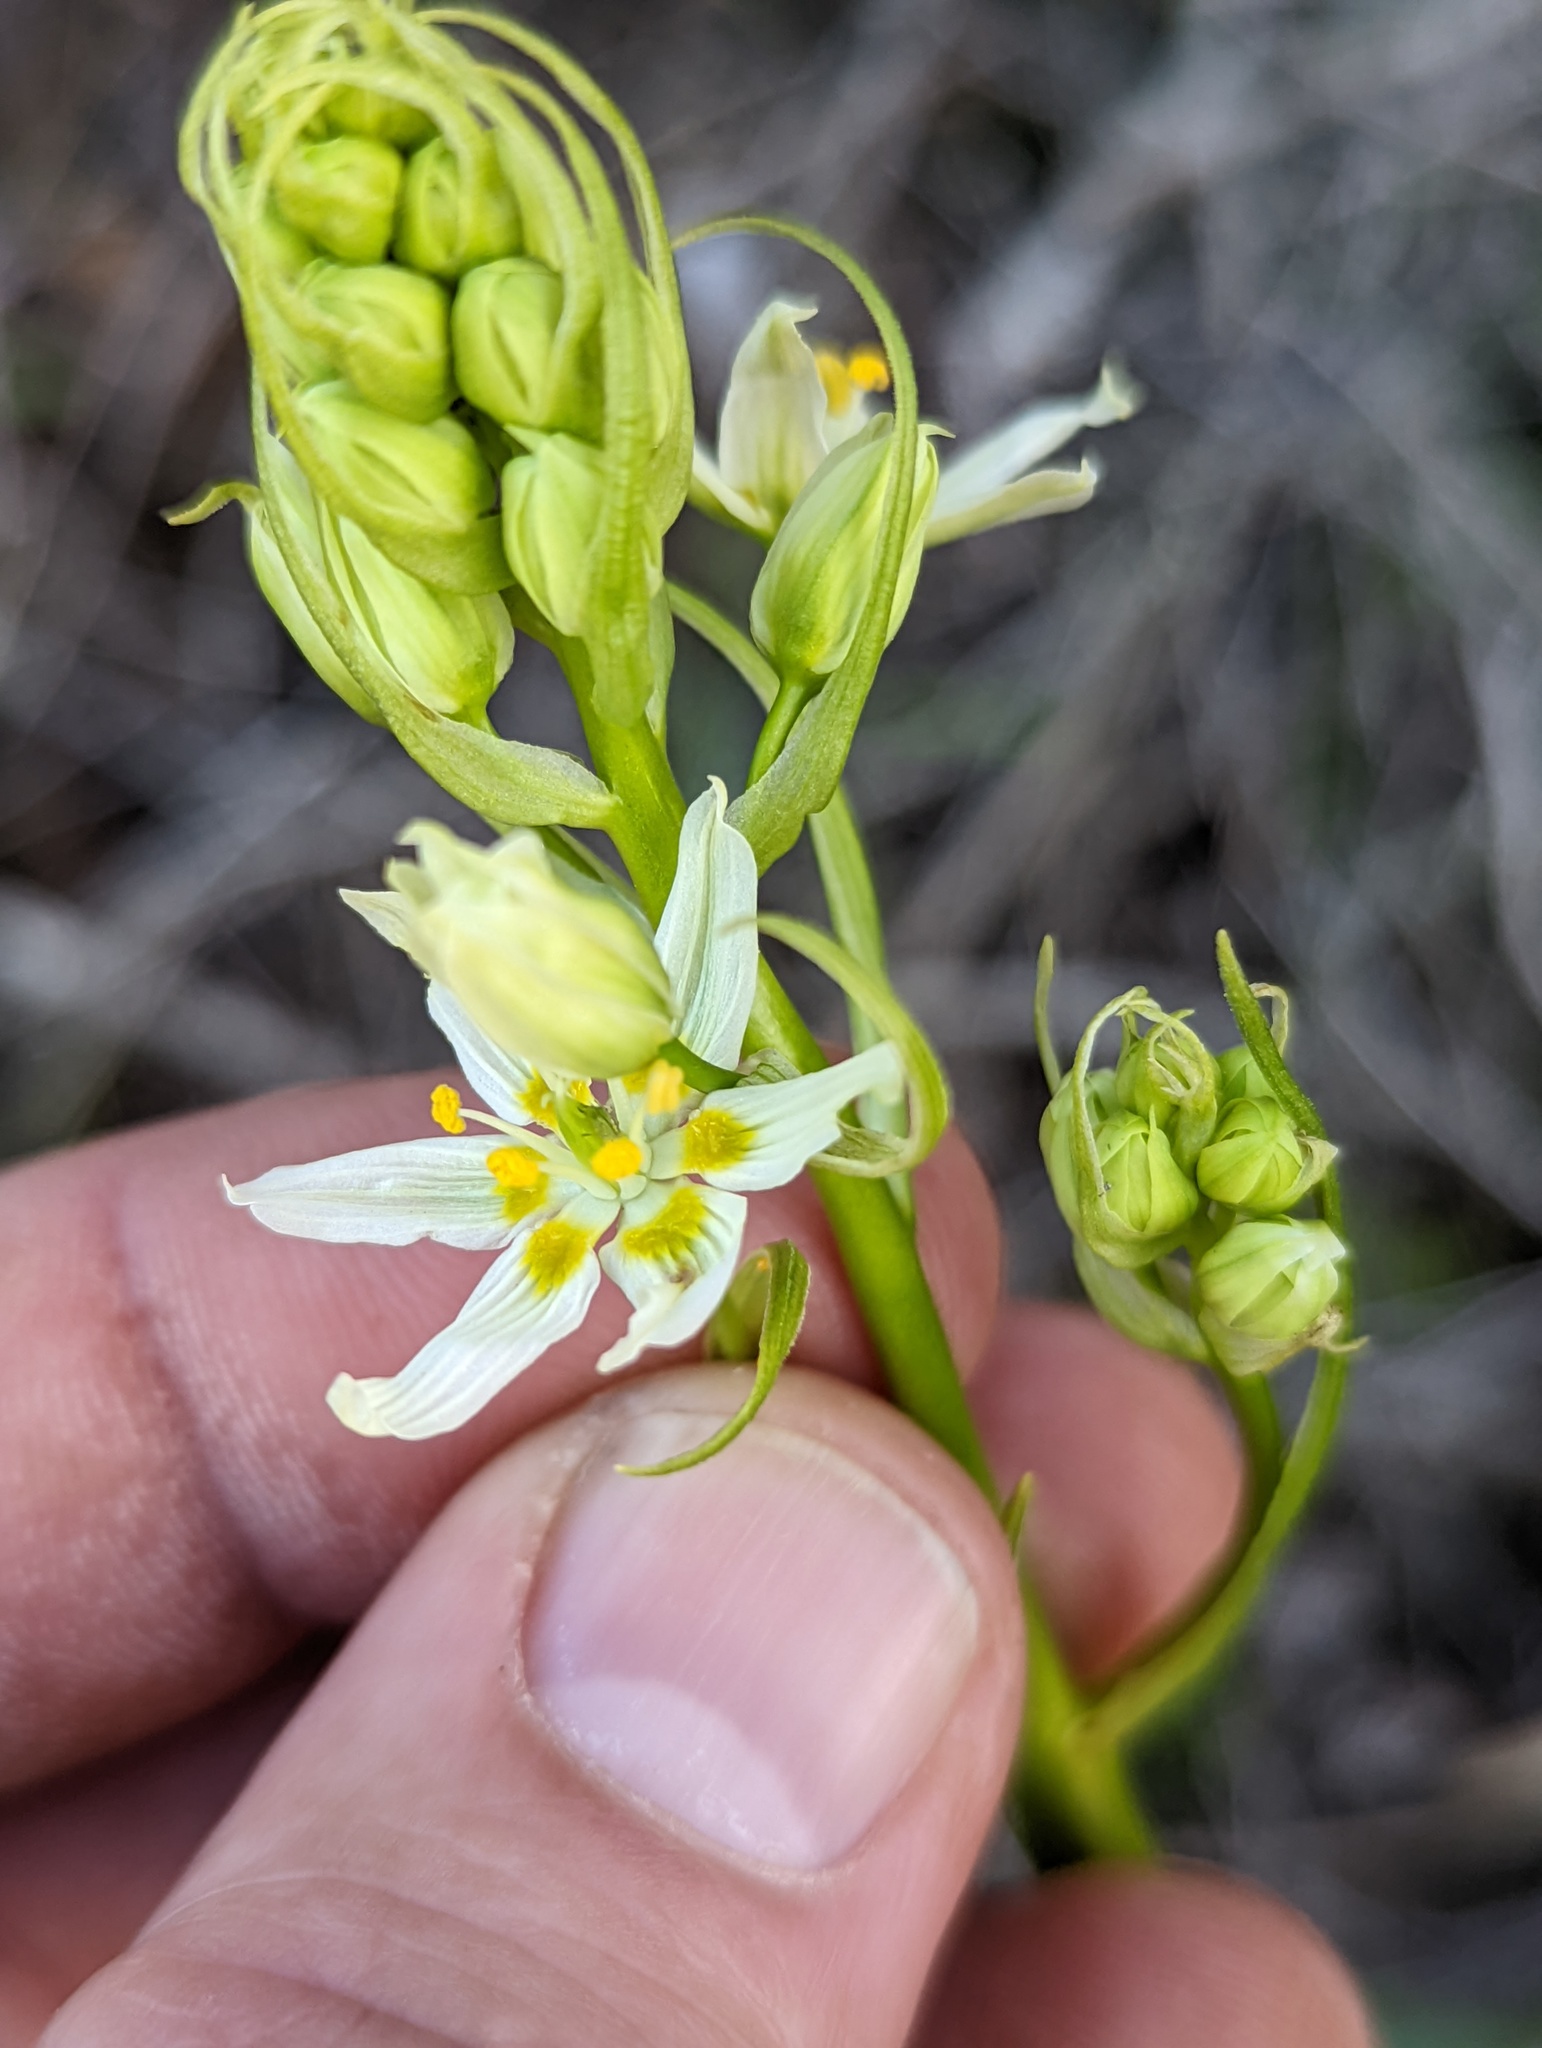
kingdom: Plantae
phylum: Tracheophyta
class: Liliopsida
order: Liliales
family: Melanthiaceae
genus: Toxicoscordion
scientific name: Toxicoscordion fremontii
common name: Fremont's death camas
